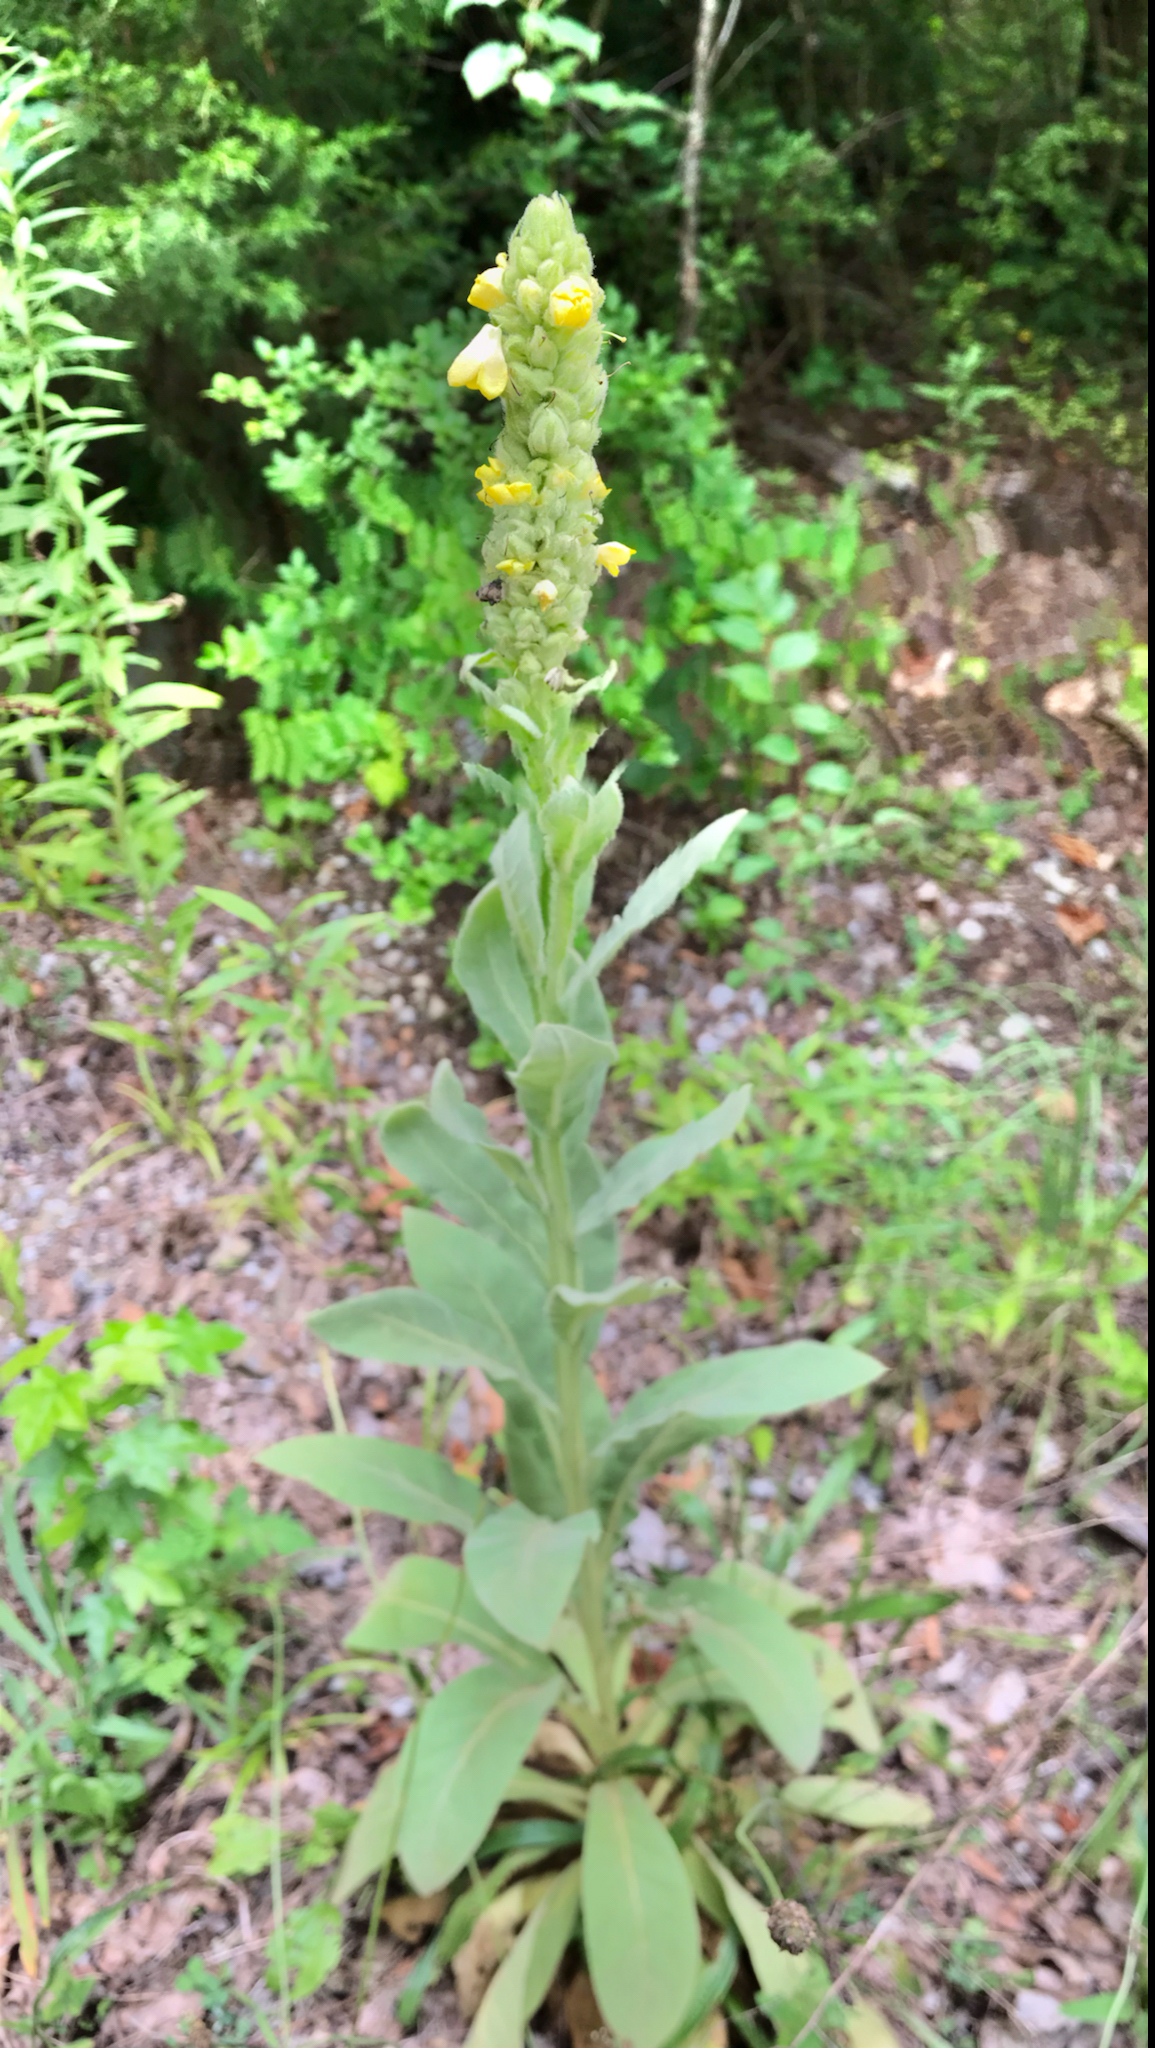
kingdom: Plantae
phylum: Tracheophyta
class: Magnoliopsida
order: Lamiales
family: Scrophulariaceae
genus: Verbascum
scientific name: Verbascum thapsus
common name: Common mullein
